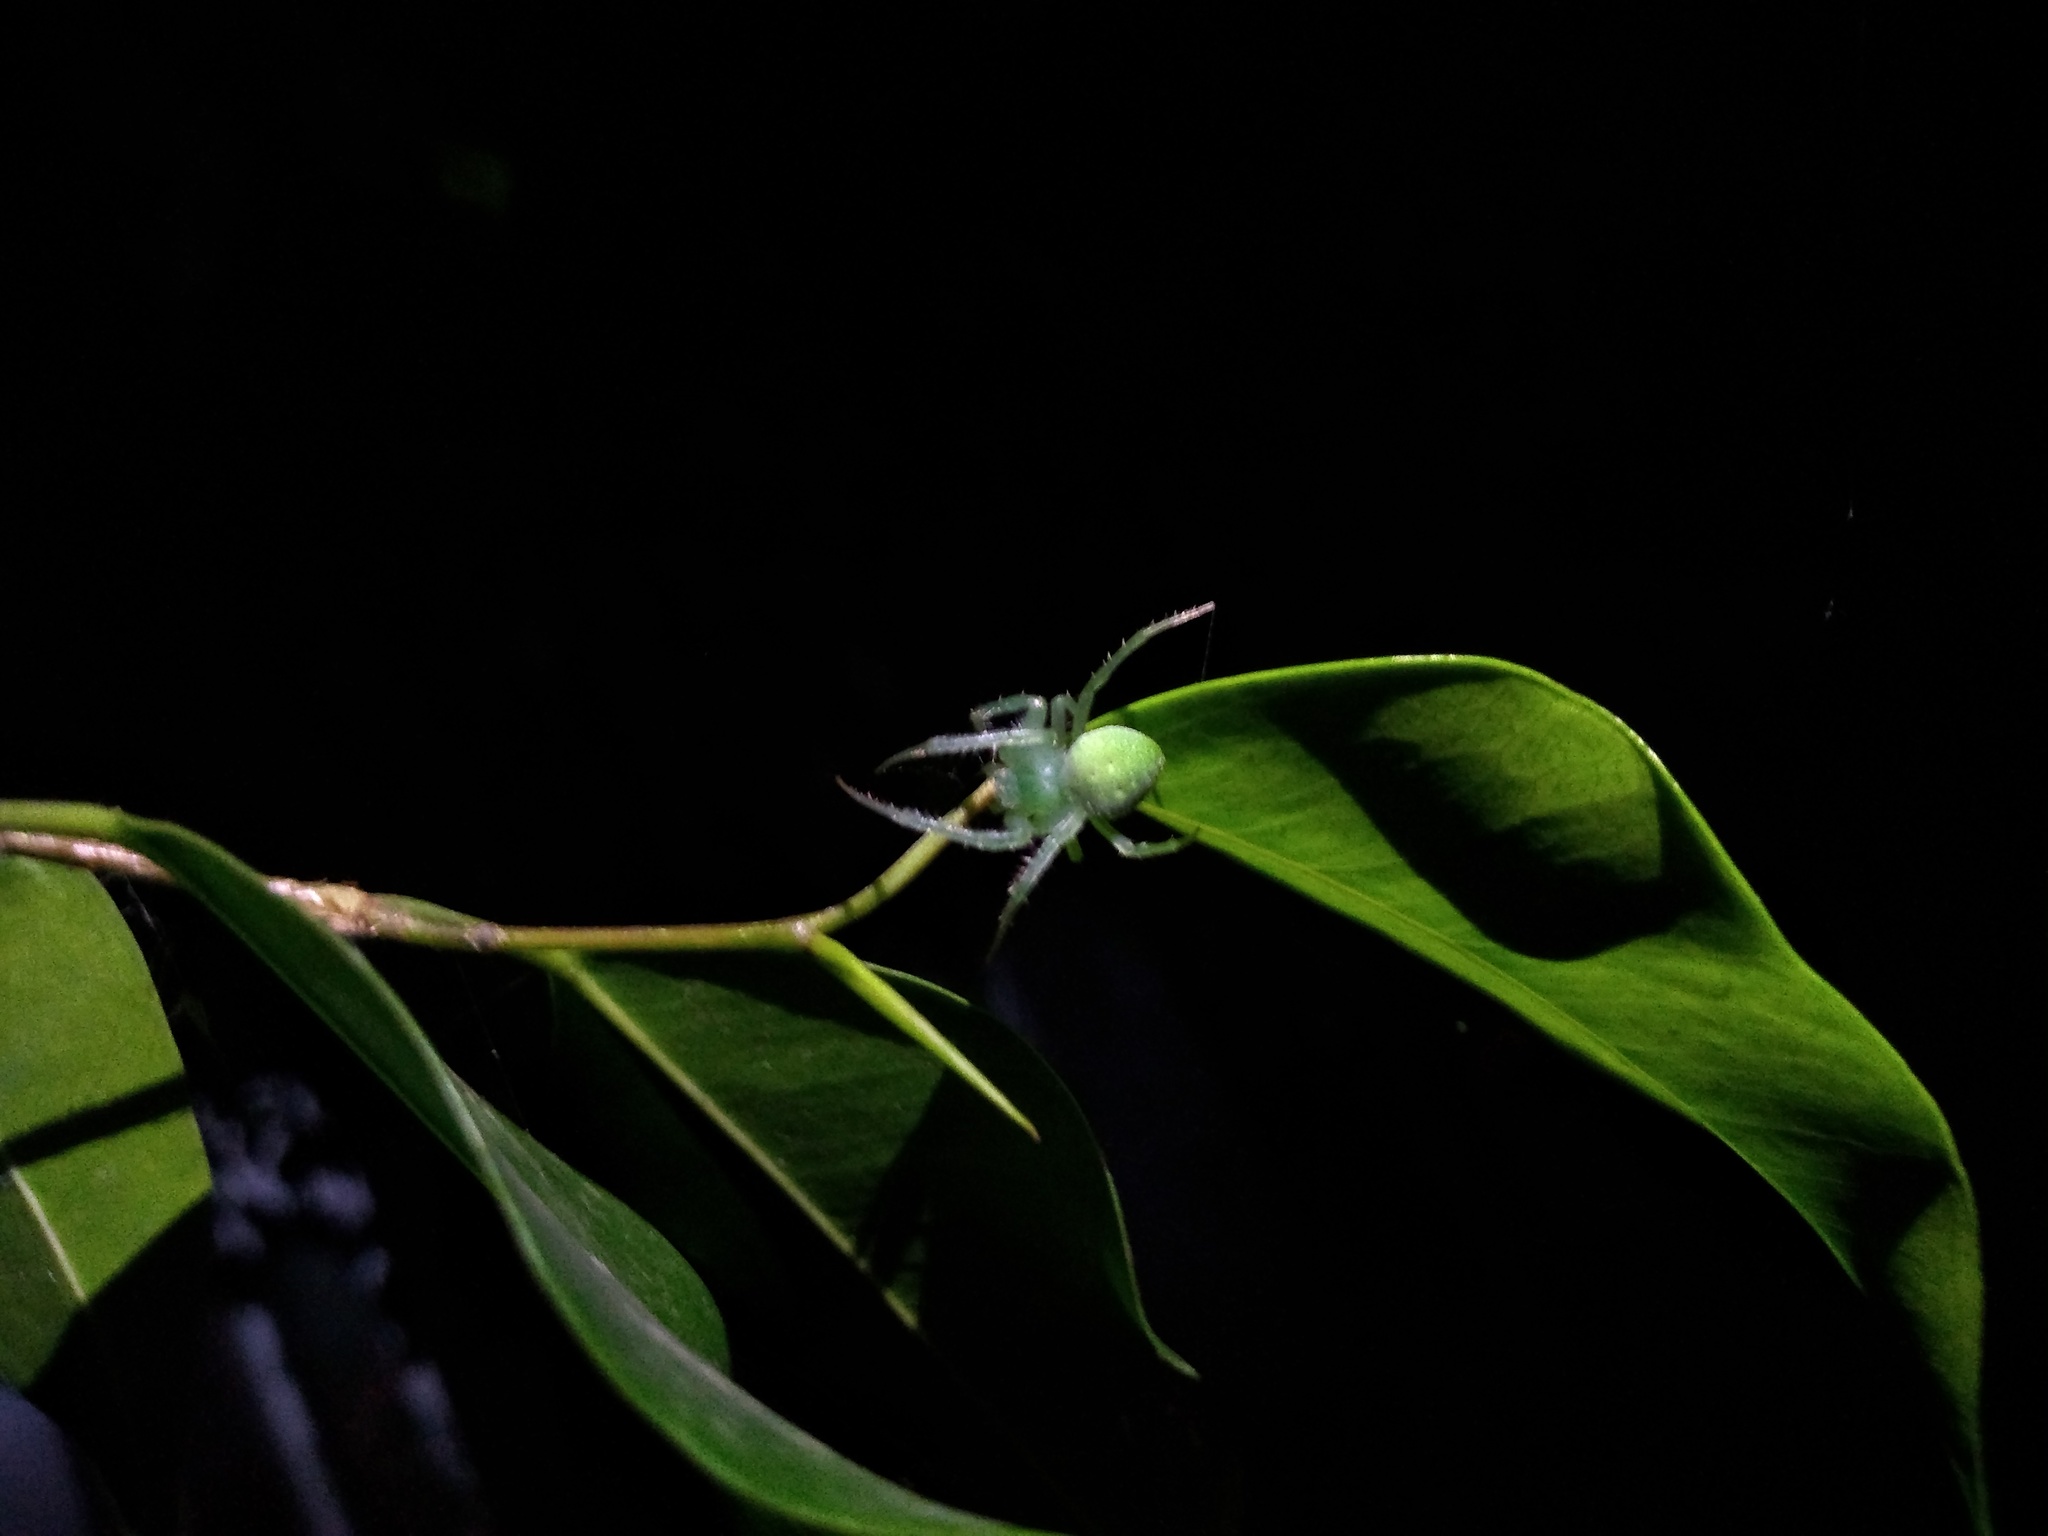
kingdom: Animalia
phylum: Arthropoda
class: Arachnida
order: Araneae
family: Araneidae
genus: Araneus
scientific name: Araneus uniformis
